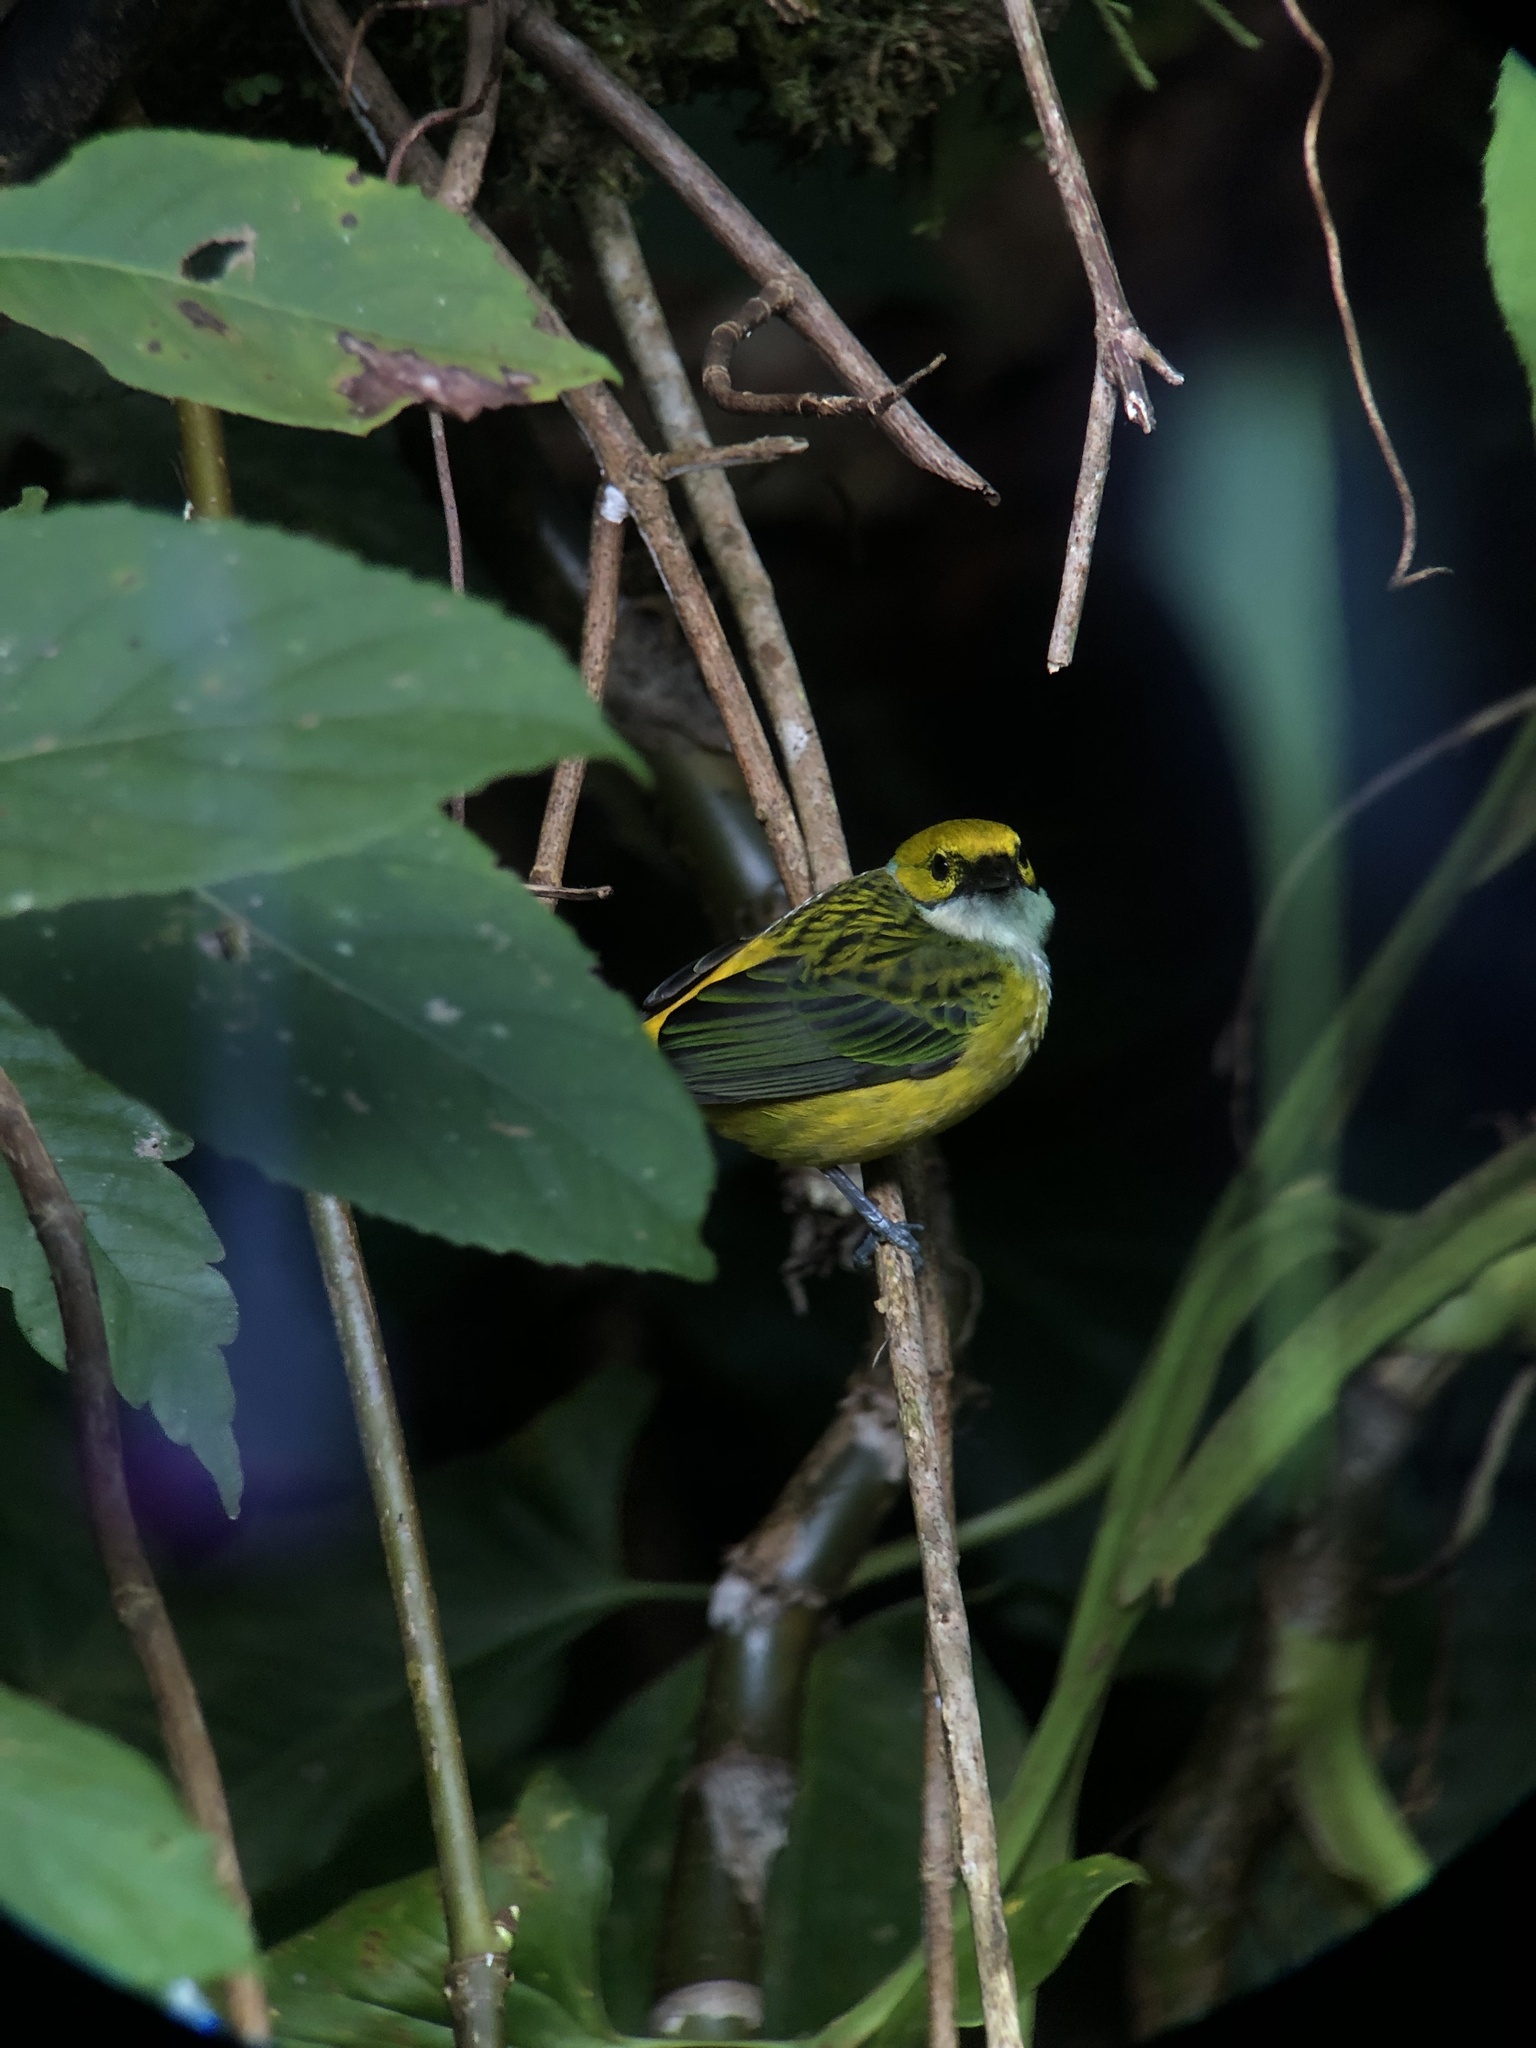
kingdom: Animalia
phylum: Chordata
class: Aves
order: Passeriformes
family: Thraupidae
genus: Tangara
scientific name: Tangara icterocephala
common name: Silver-throated tanager
